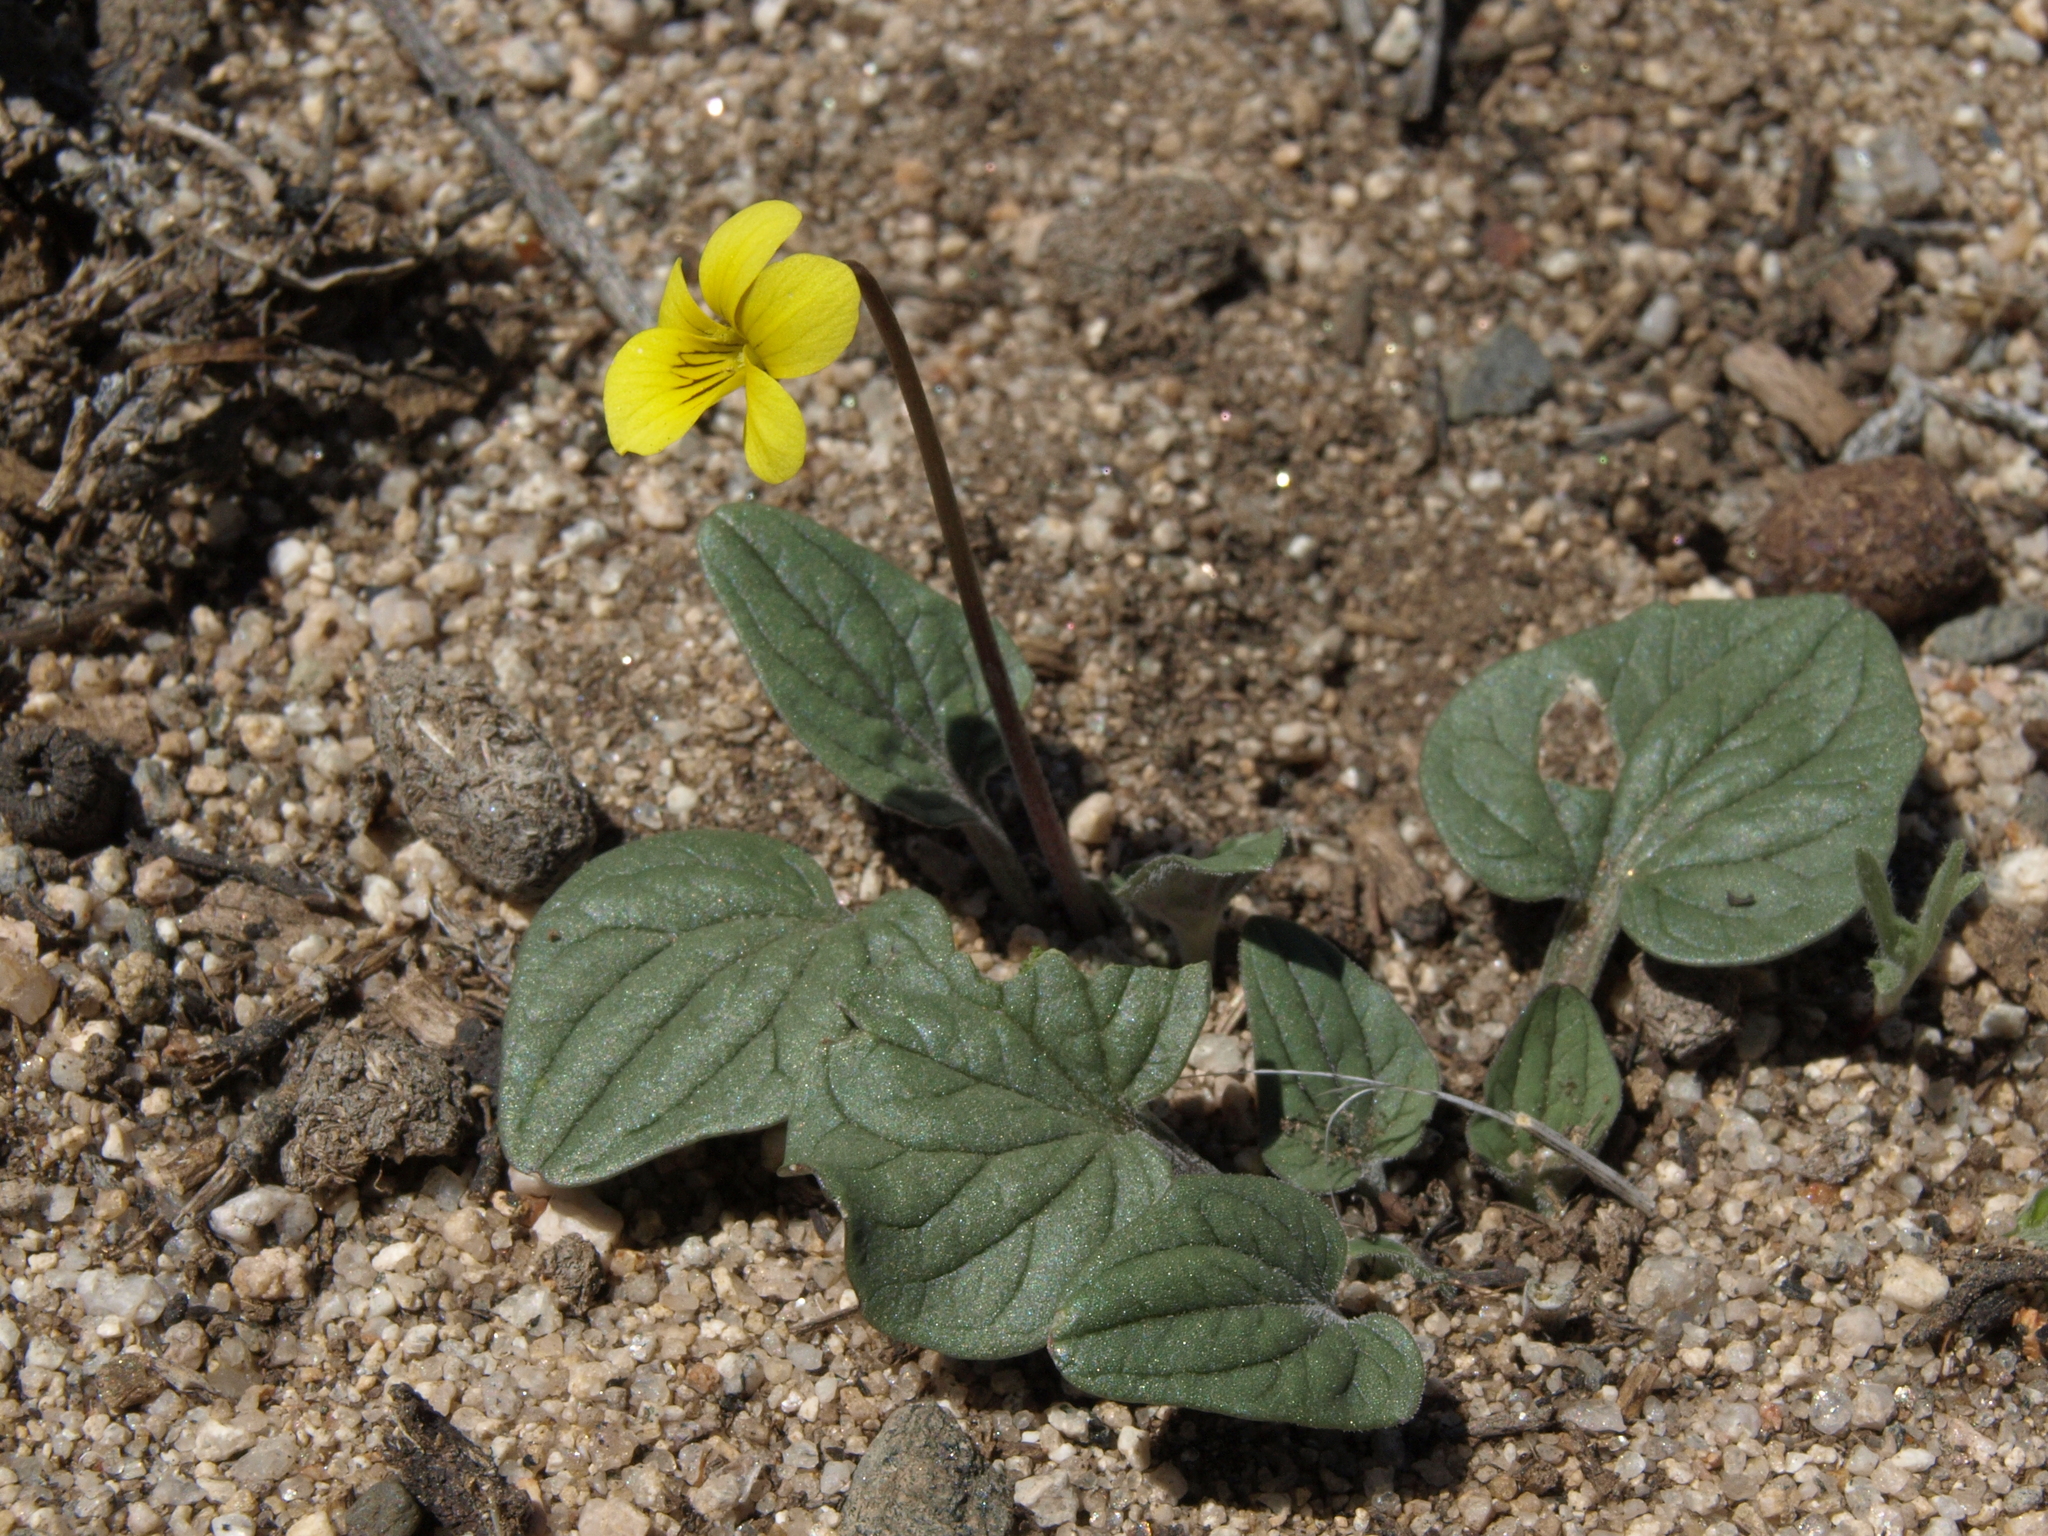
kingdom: Plantae
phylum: Tracheophyta
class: Magnoliopsida
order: Malpighiales
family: Violaceae
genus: Viola
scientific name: Viola purpurea
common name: Pine violet
